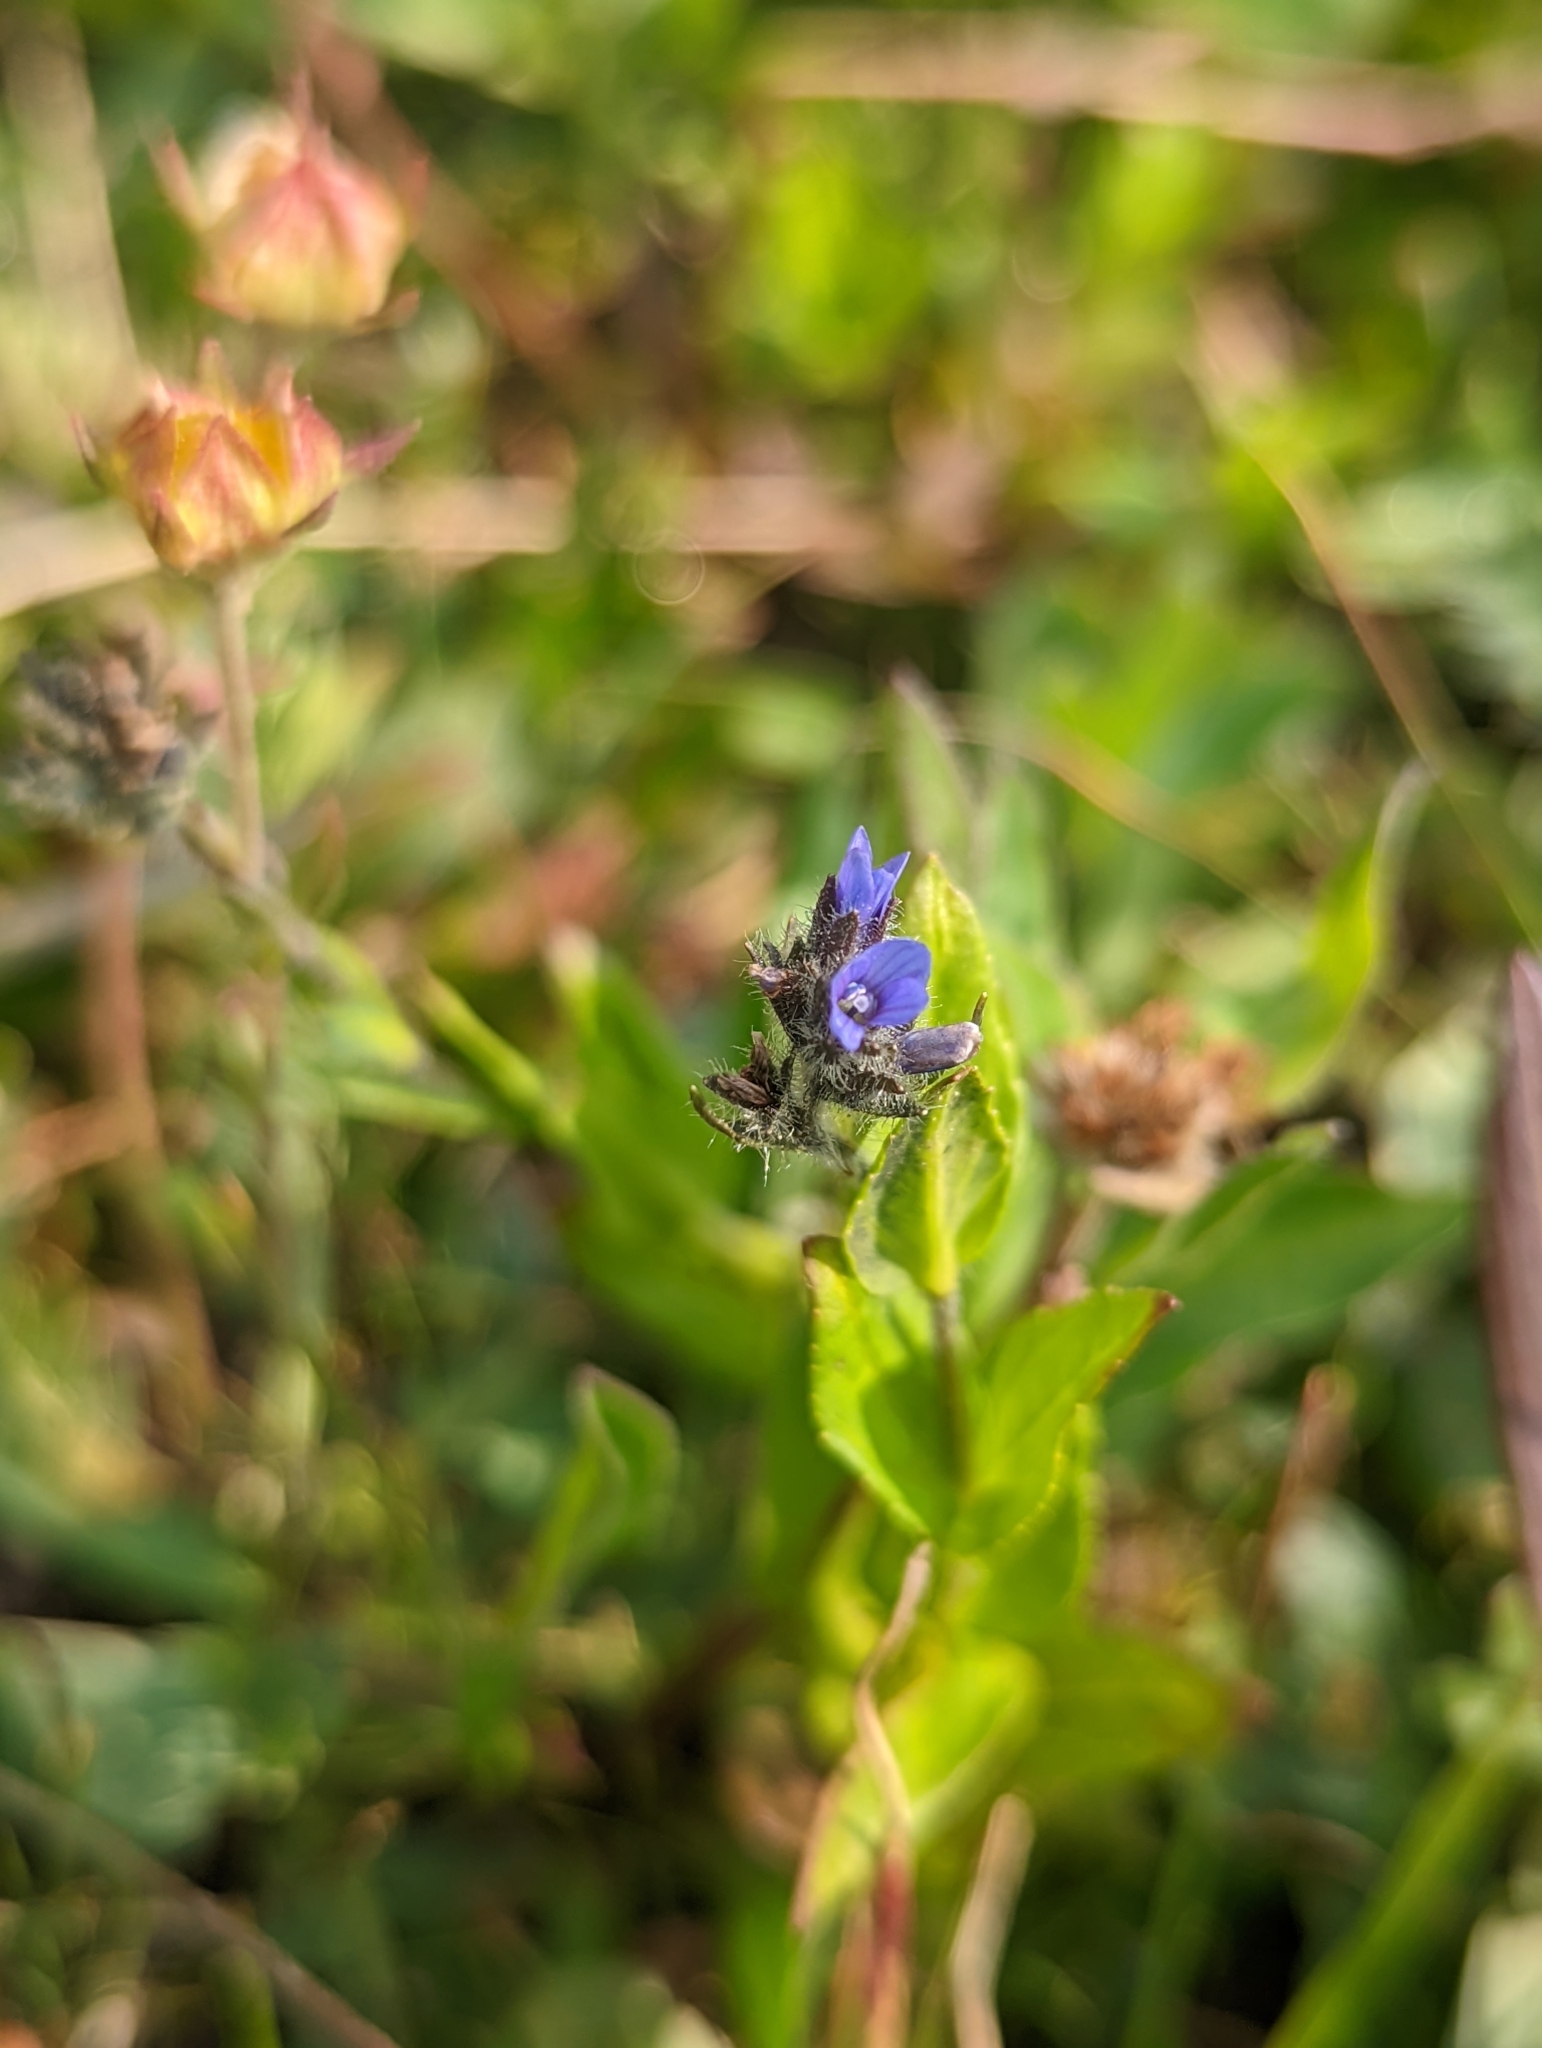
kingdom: Plantae
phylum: Tracheophyta
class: Magnoliopsida
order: Lamiales
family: Plantaginaceae
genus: Veronica
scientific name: Veronica wormskjoldii
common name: American alpine speedwell
